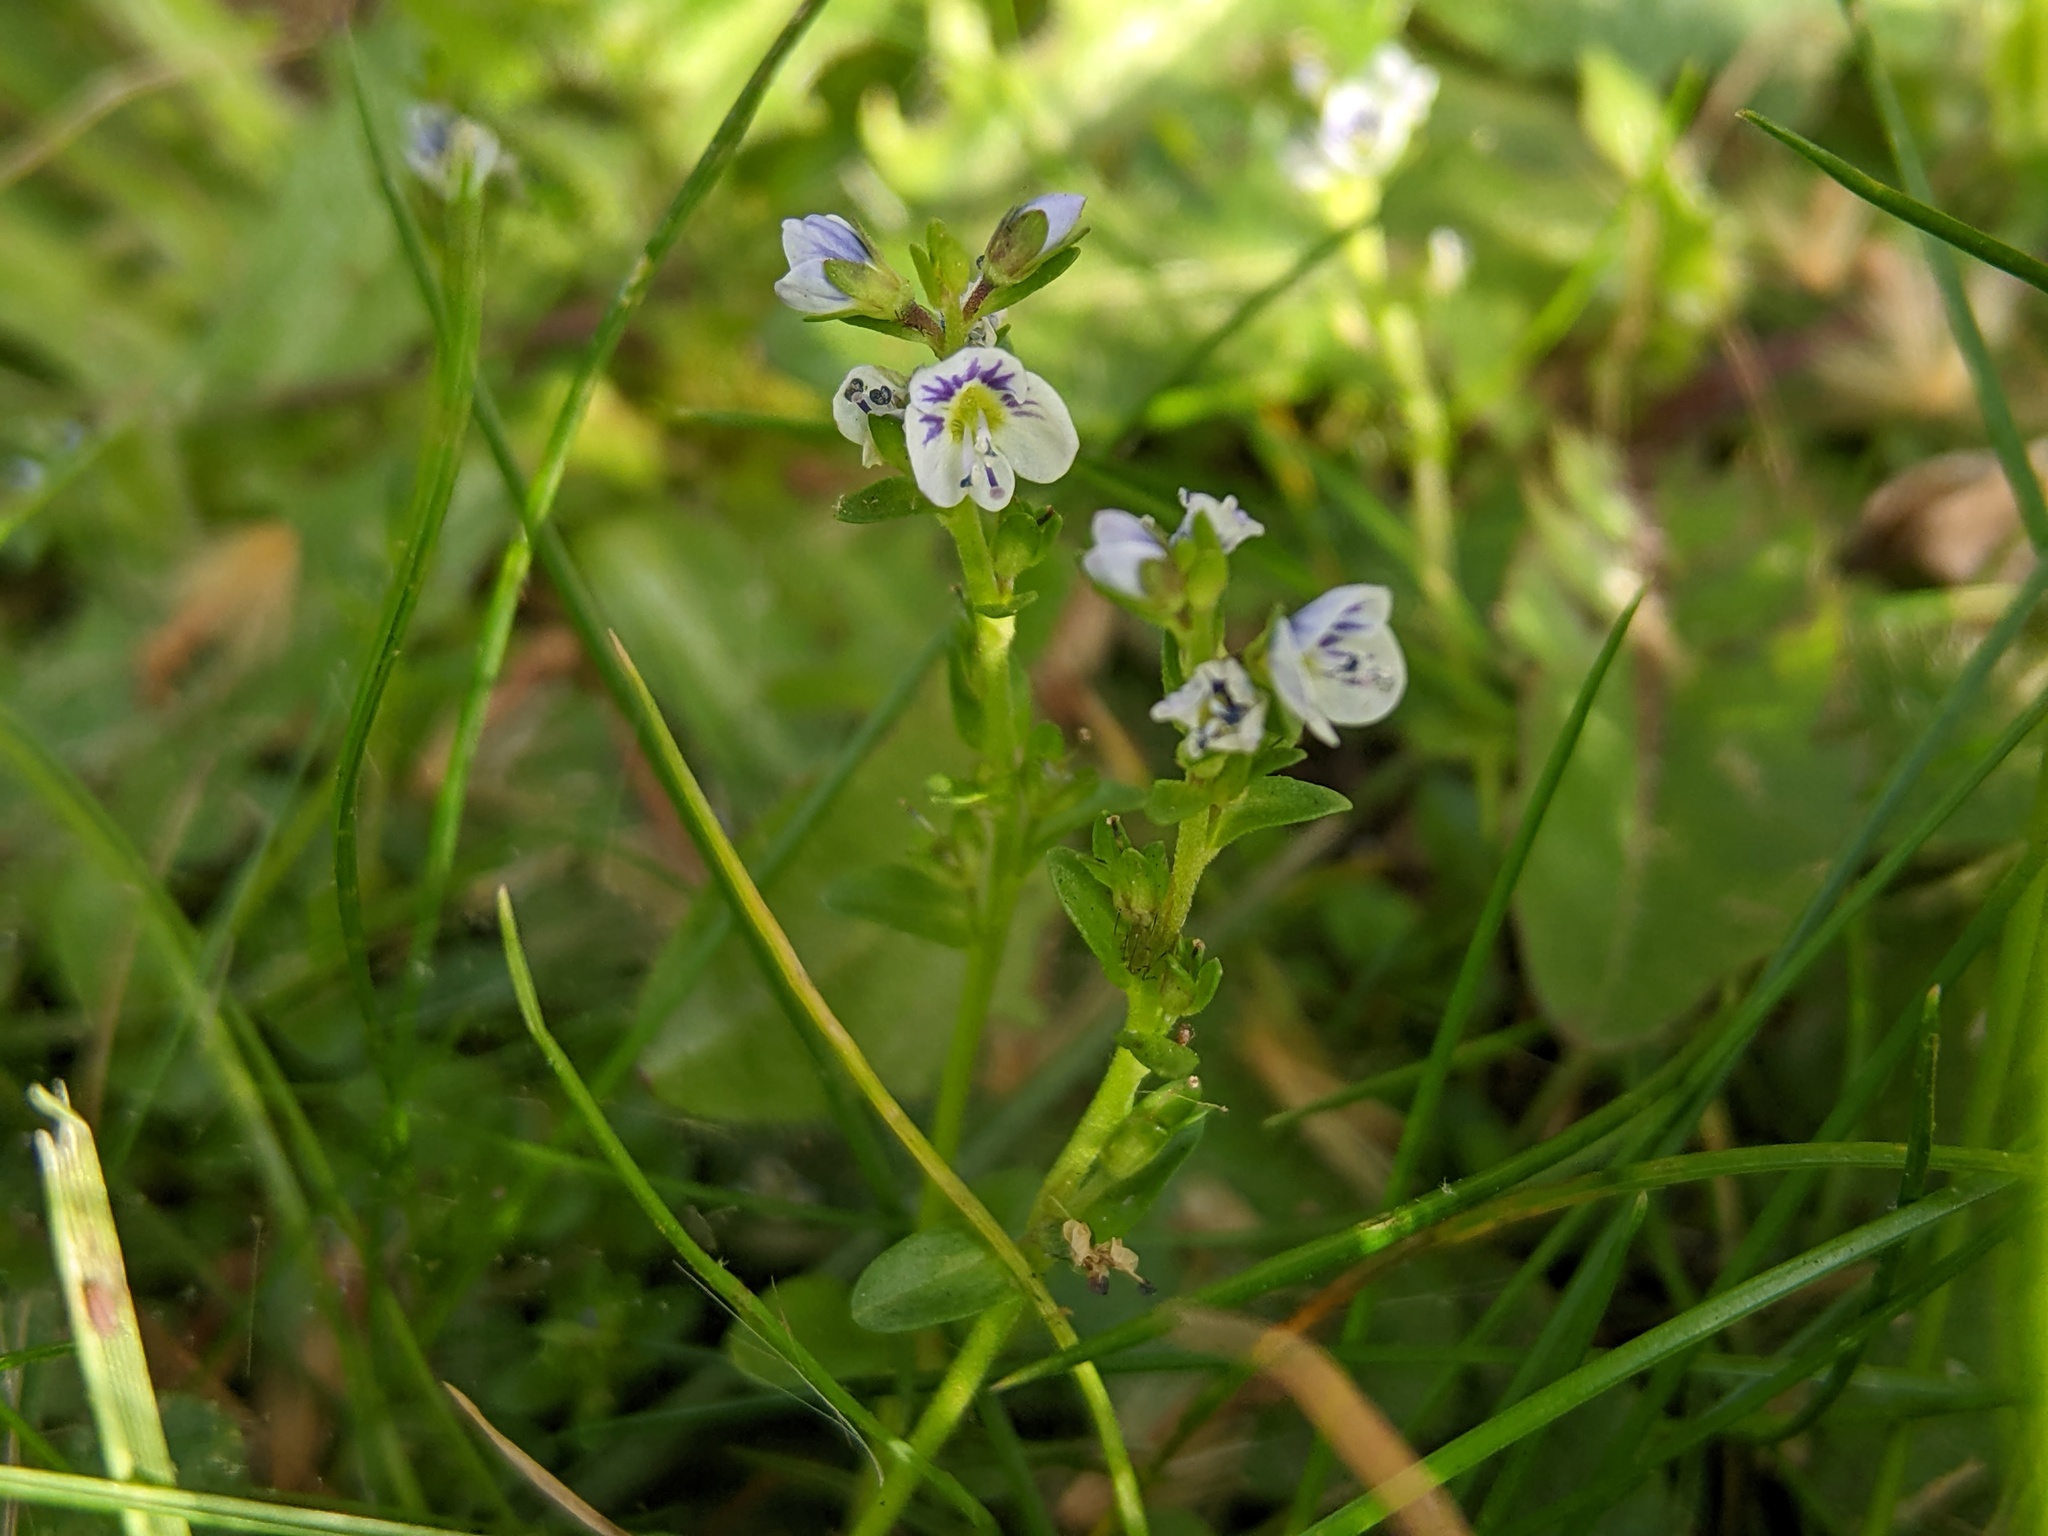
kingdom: Plantae
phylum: Tracheophyta
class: Magnoliopsida
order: Lamiales
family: Plantaginaceae
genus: Veronica
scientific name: Veronica serpyllifolia
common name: Thyme-leaved speedwell
